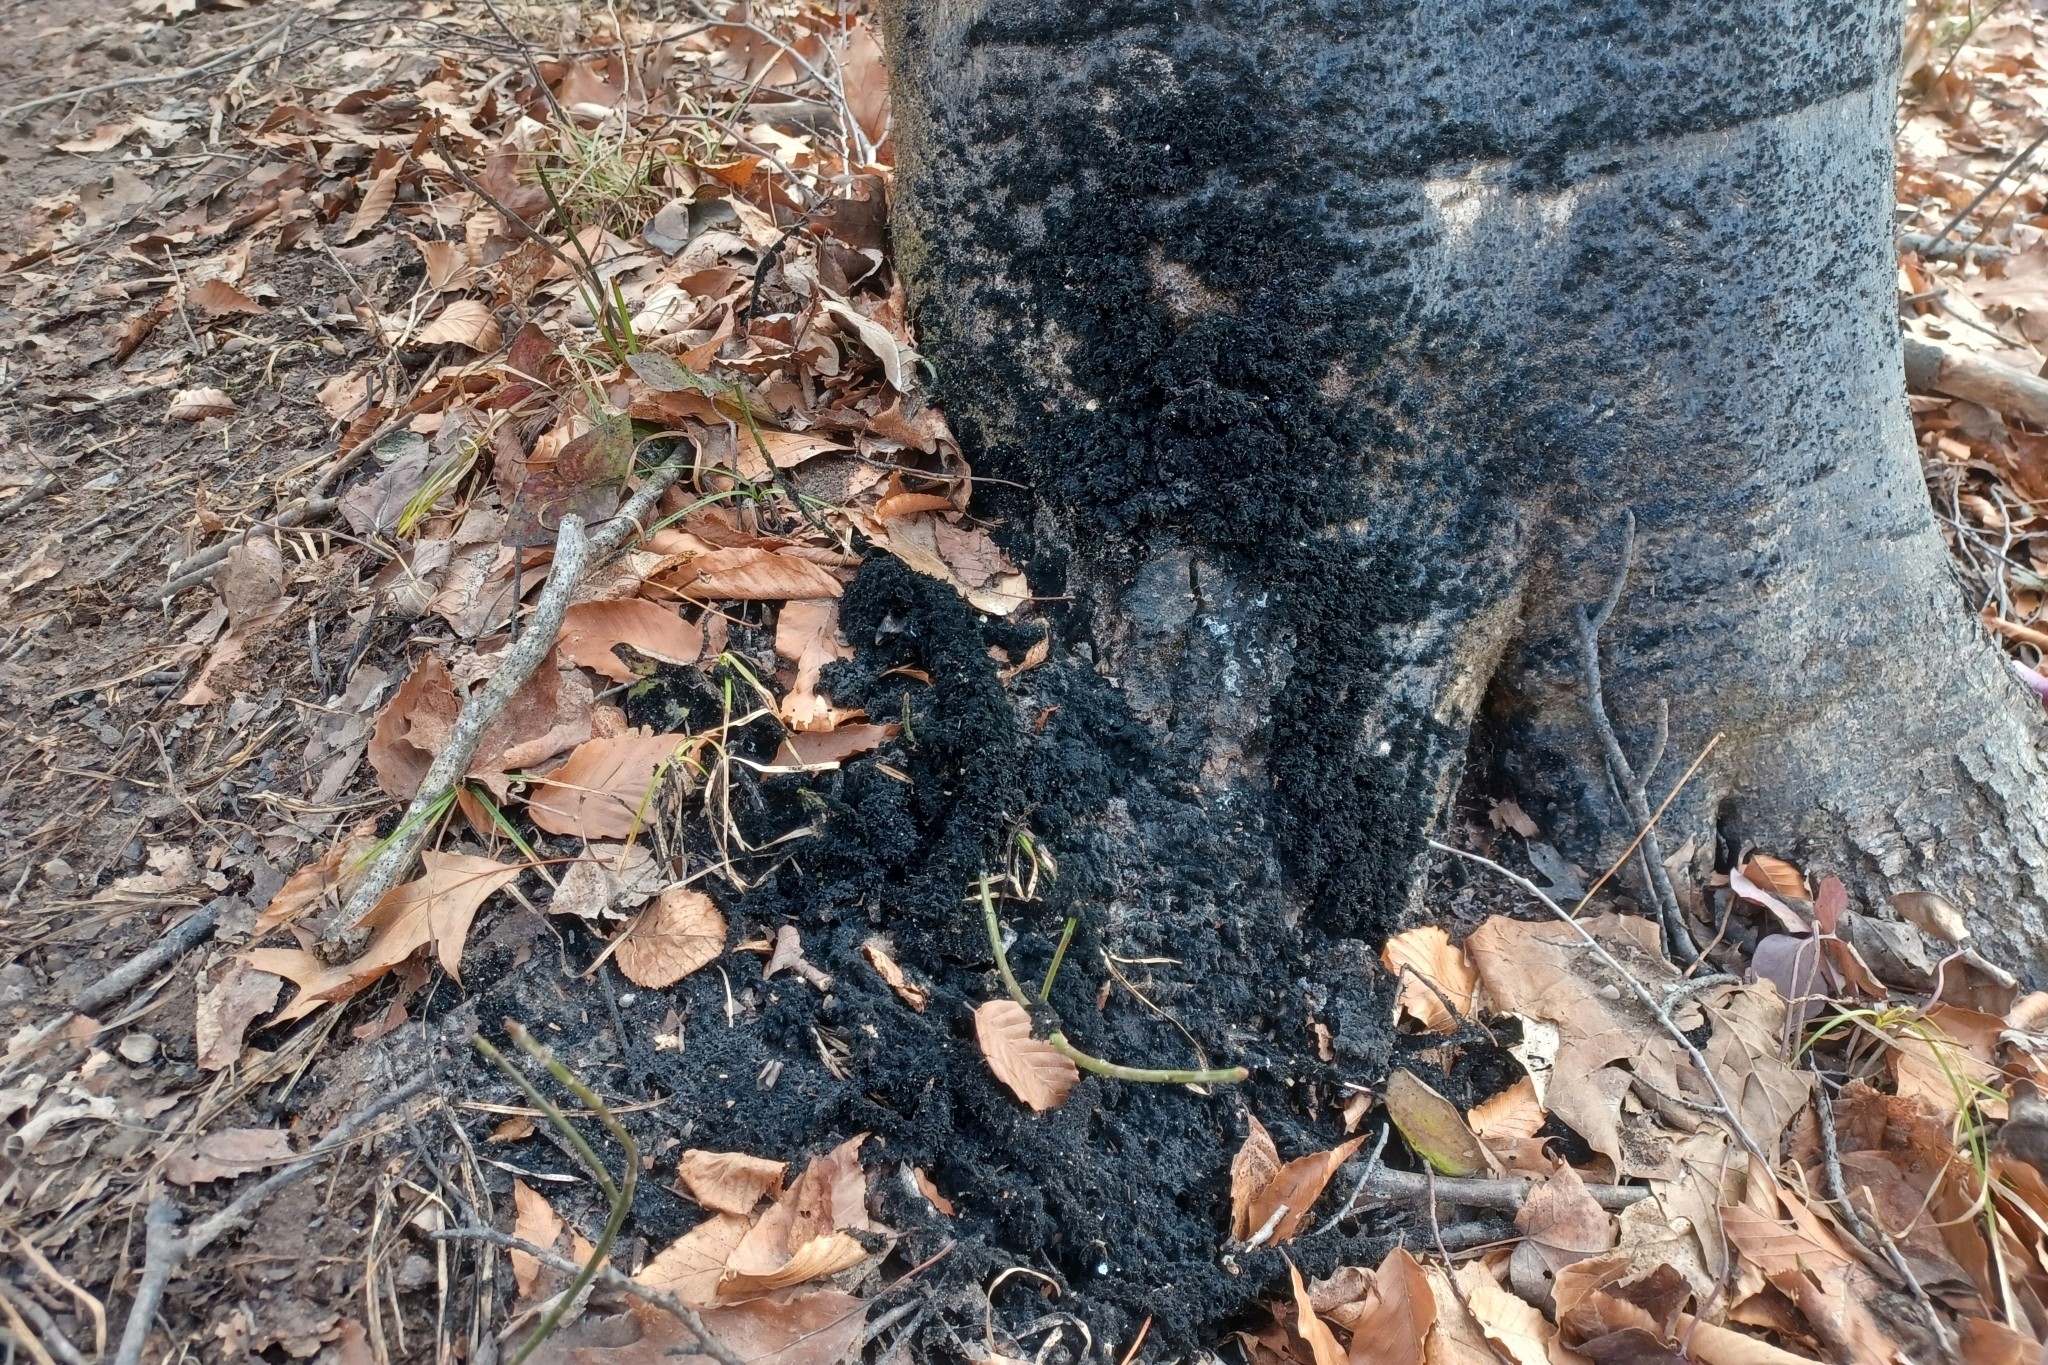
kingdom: Fungi
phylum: Ascomycota
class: Dothideomycetes
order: Capnodiales
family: Capnodiaceae
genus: Scorias
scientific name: Scorias spongiosa
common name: Black sooty mold
